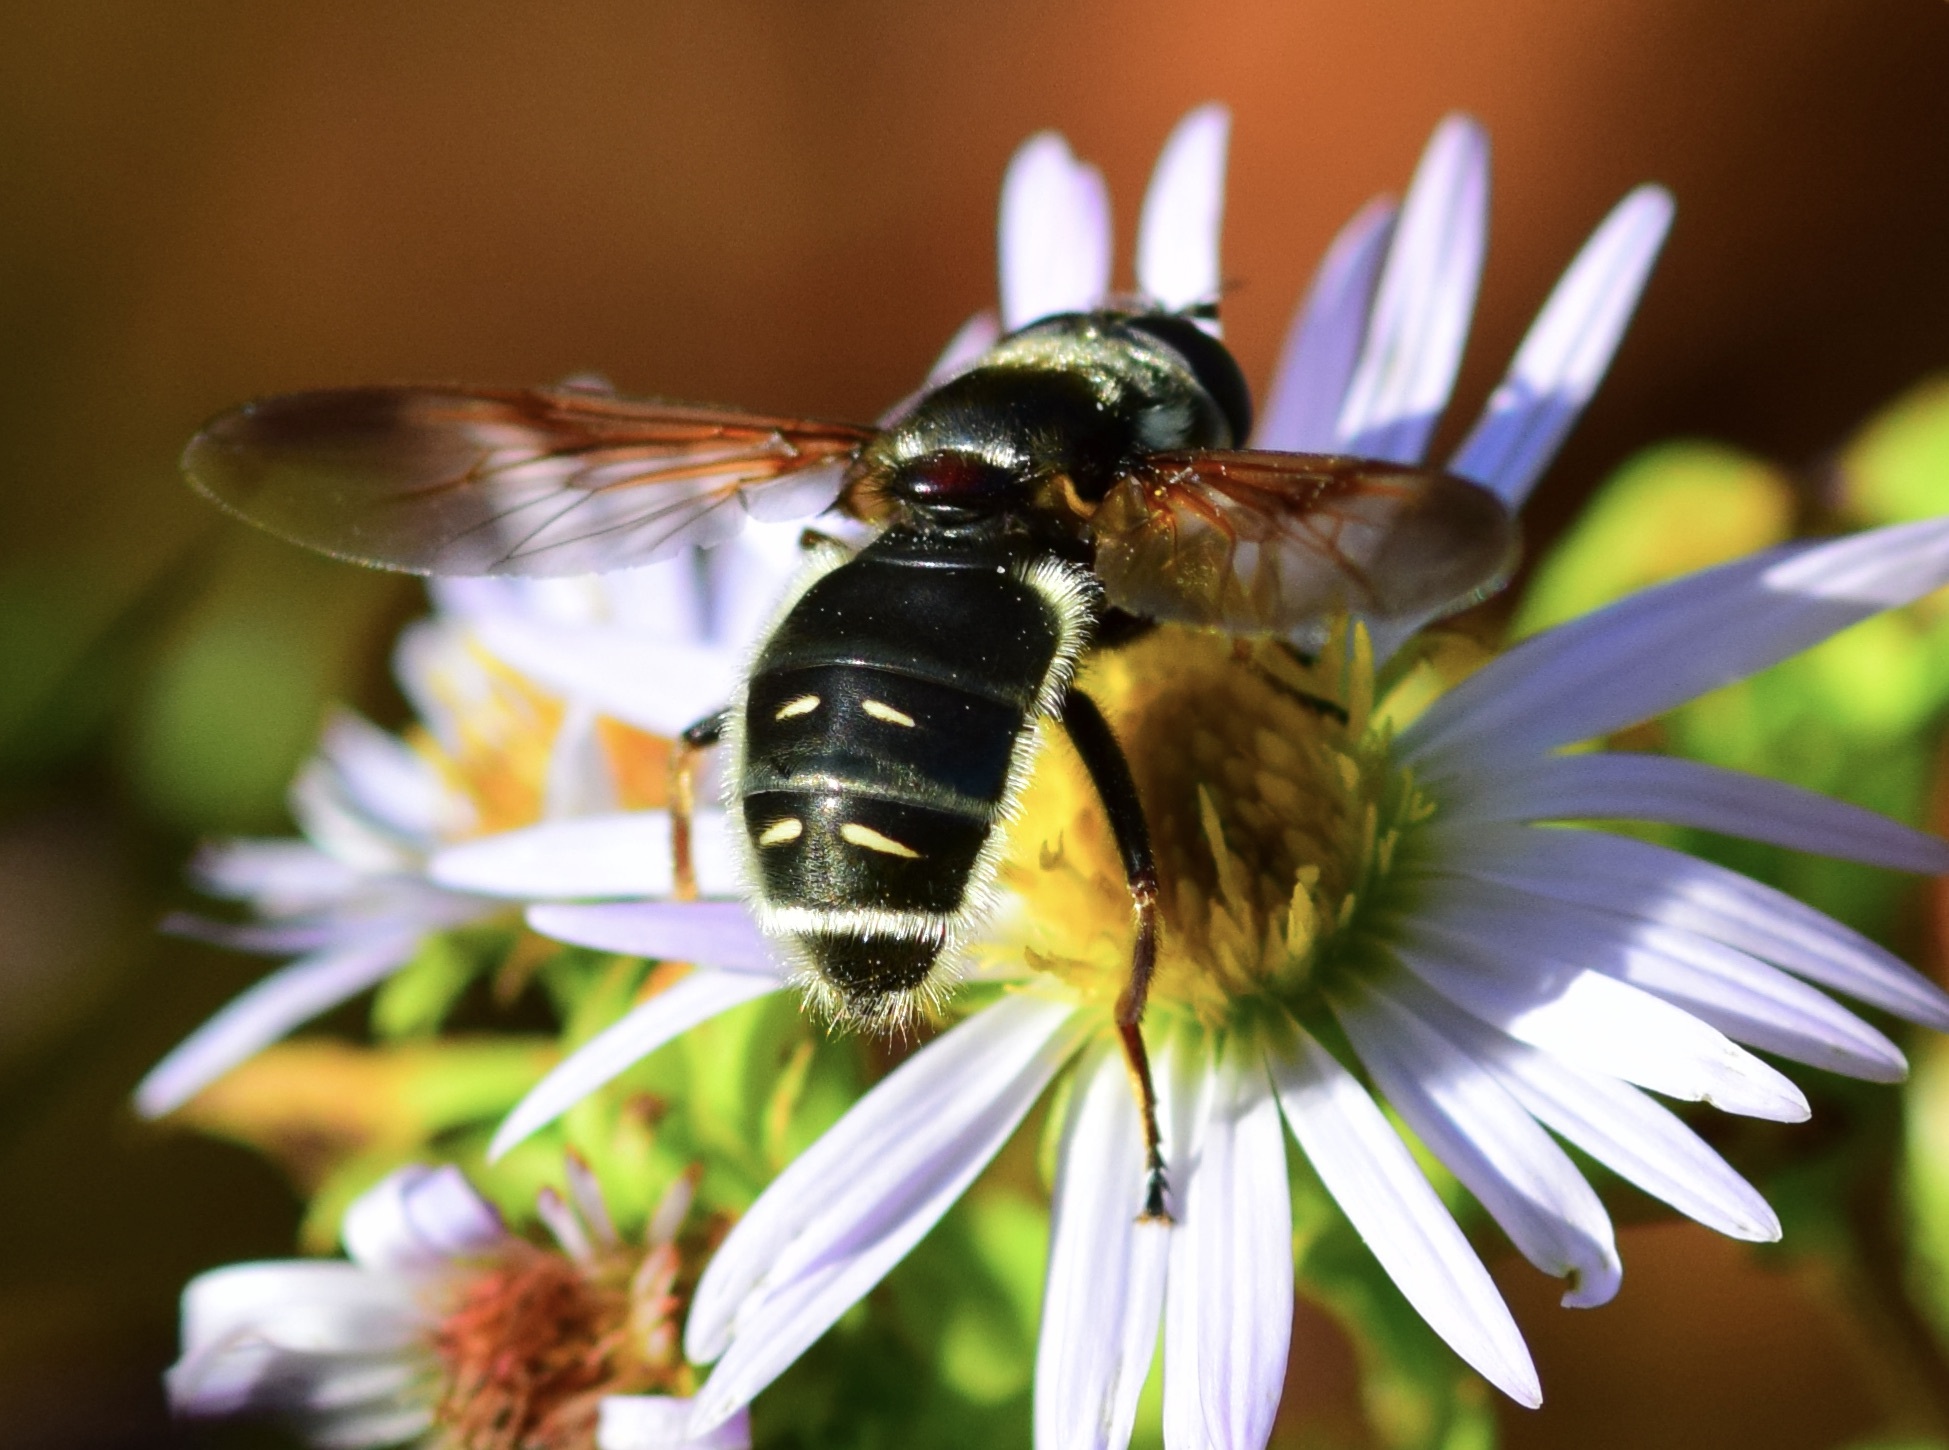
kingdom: Animalia
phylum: Arthropoda
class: Insecta
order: Diptera
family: Syrphidae
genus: Sericomyia
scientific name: Sericomyia militaris
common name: Narrow-banded pond fly
